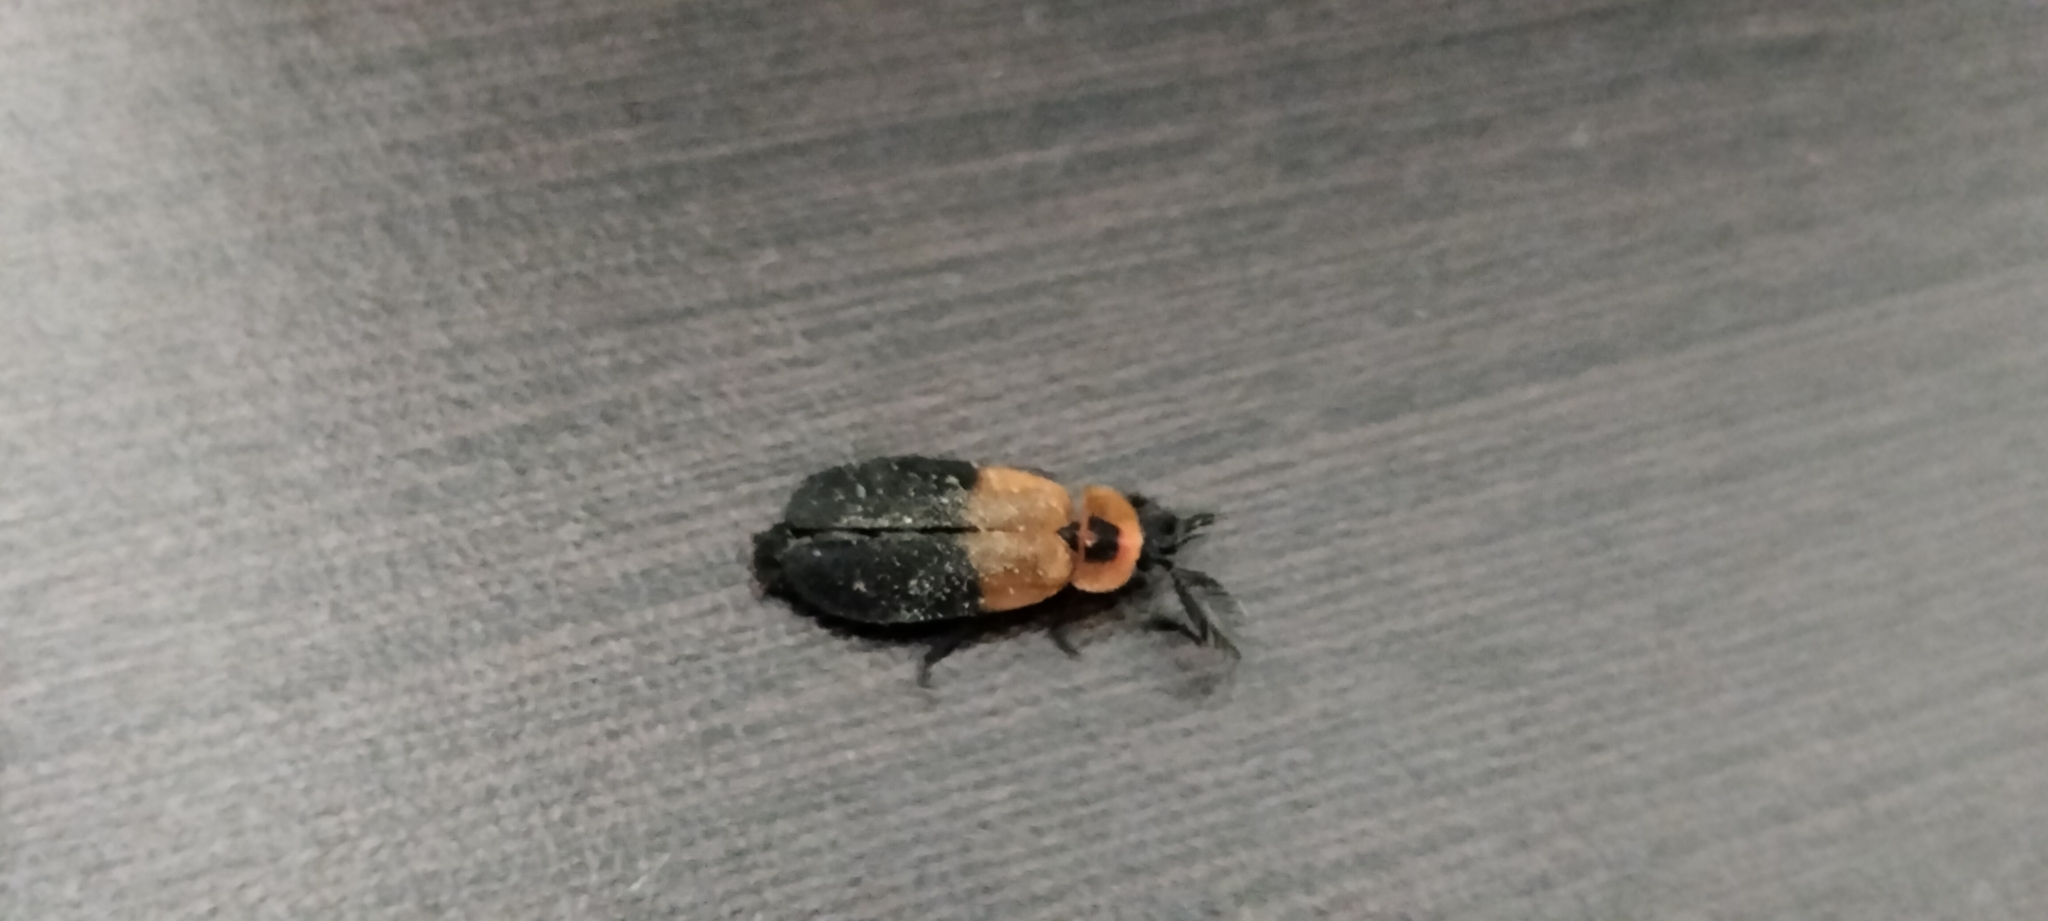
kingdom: Animalia
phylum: Arthropoda
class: Insecta
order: Coleoptera
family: Lampyridae
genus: Phaenolis
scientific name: Phaenolis ustulatus
